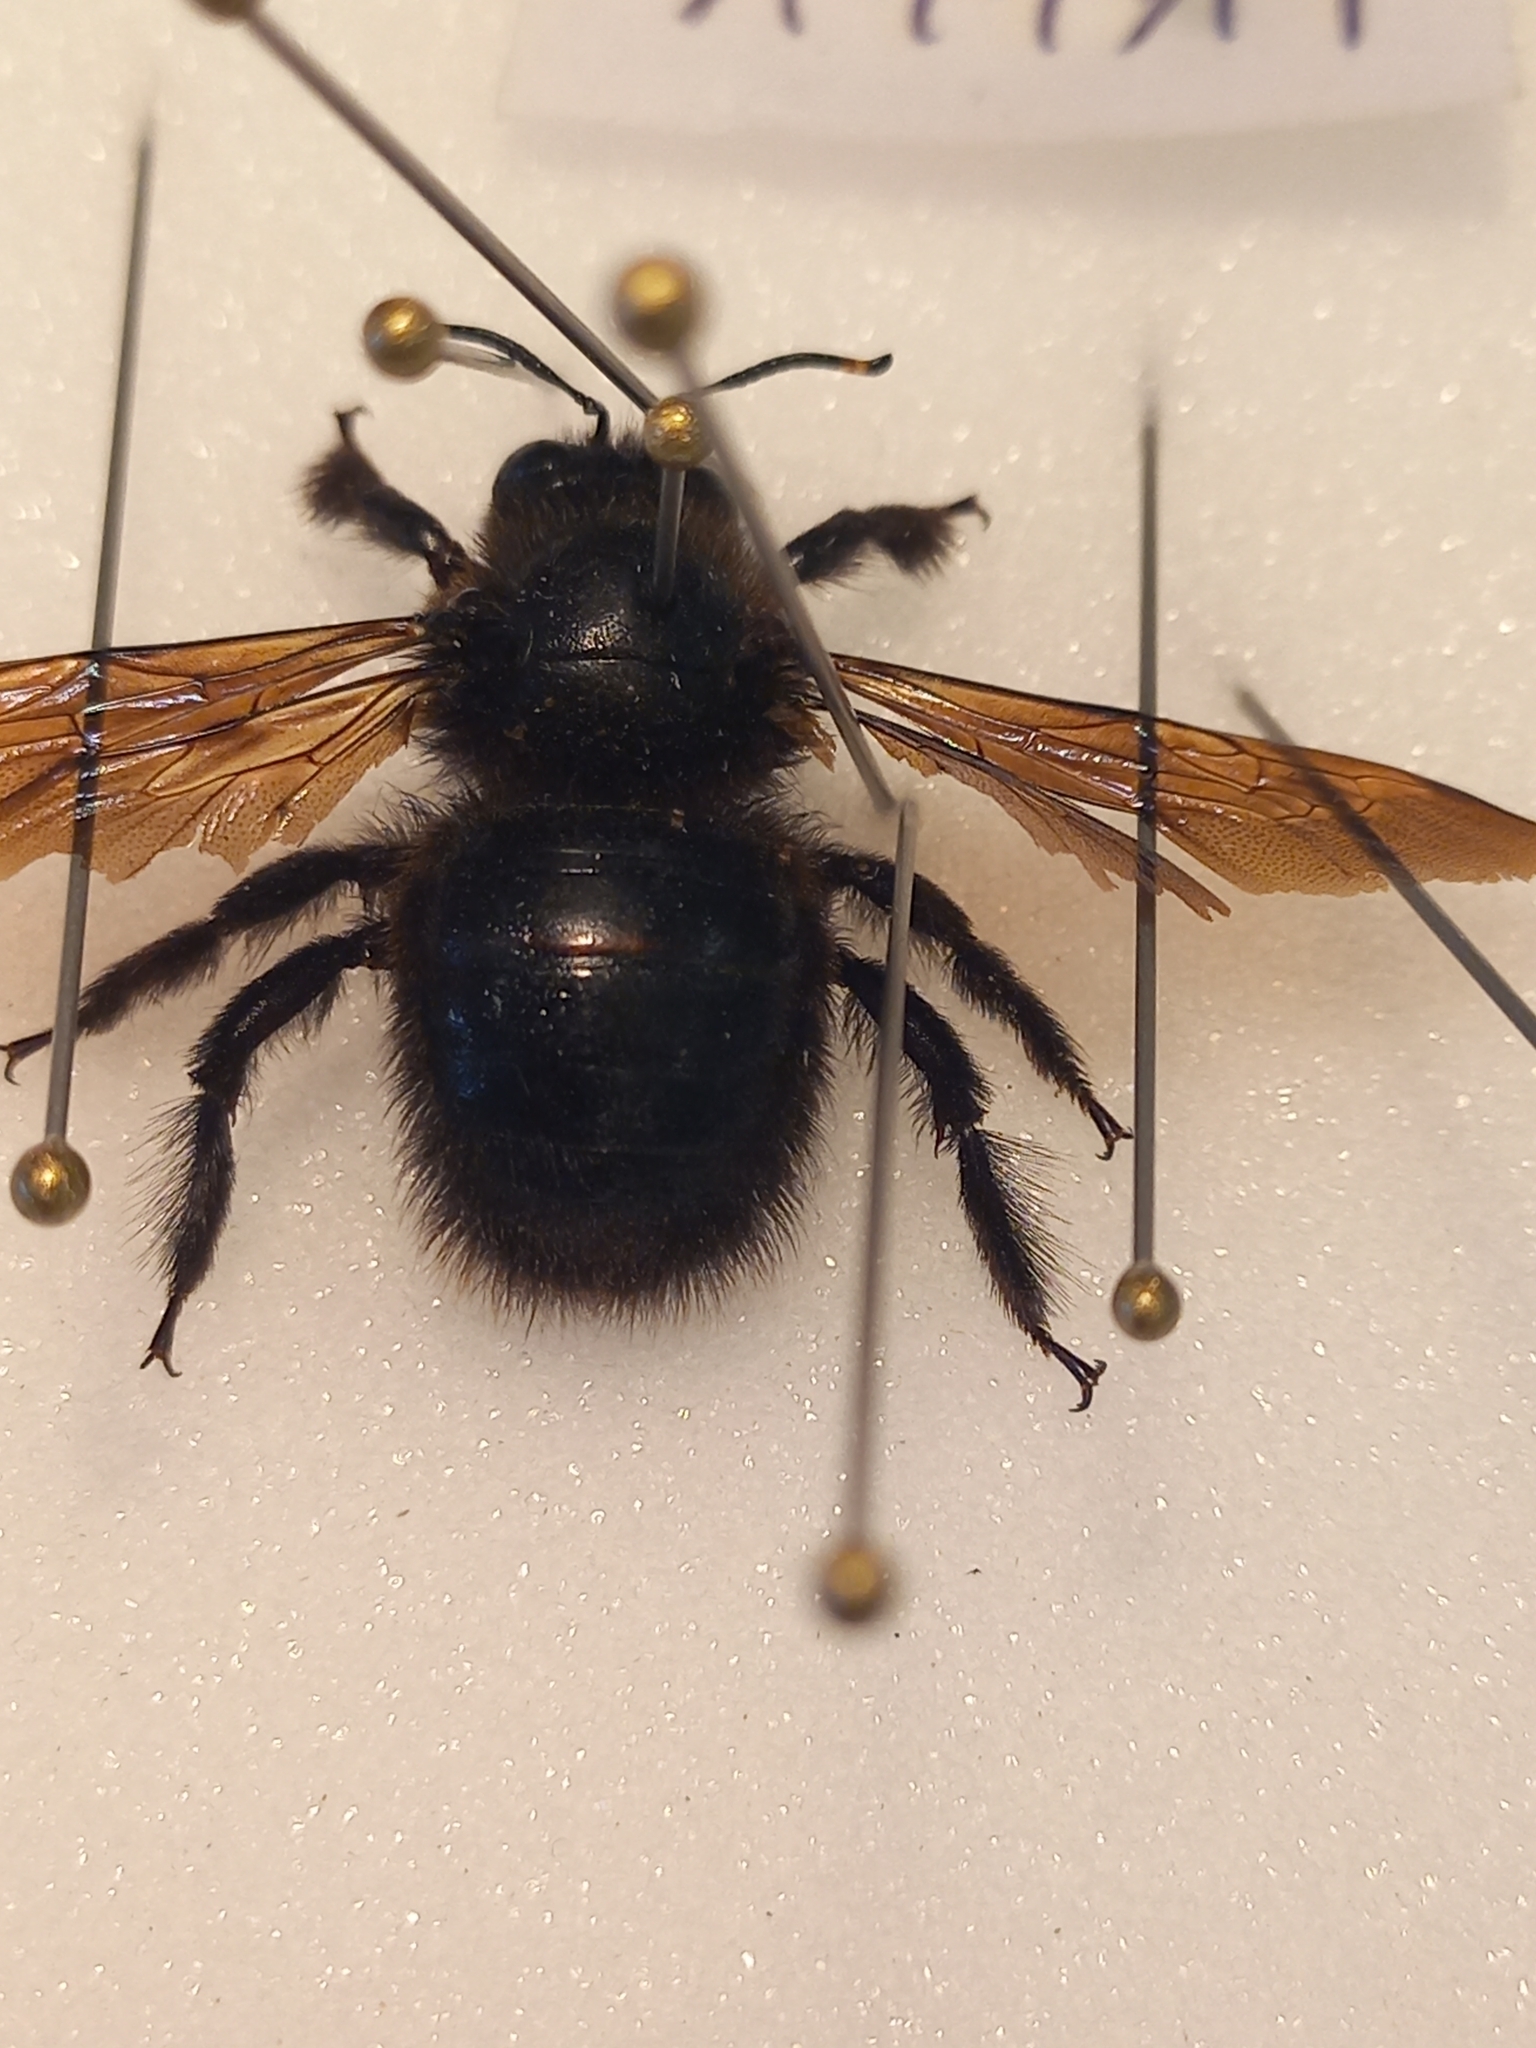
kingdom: Animalia
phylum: Arthropoda
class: Insecta
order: Hymenoptera
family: Apidae
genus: Xylocopa
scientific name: Xylocopa violacea
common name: Violet carpenter bee
